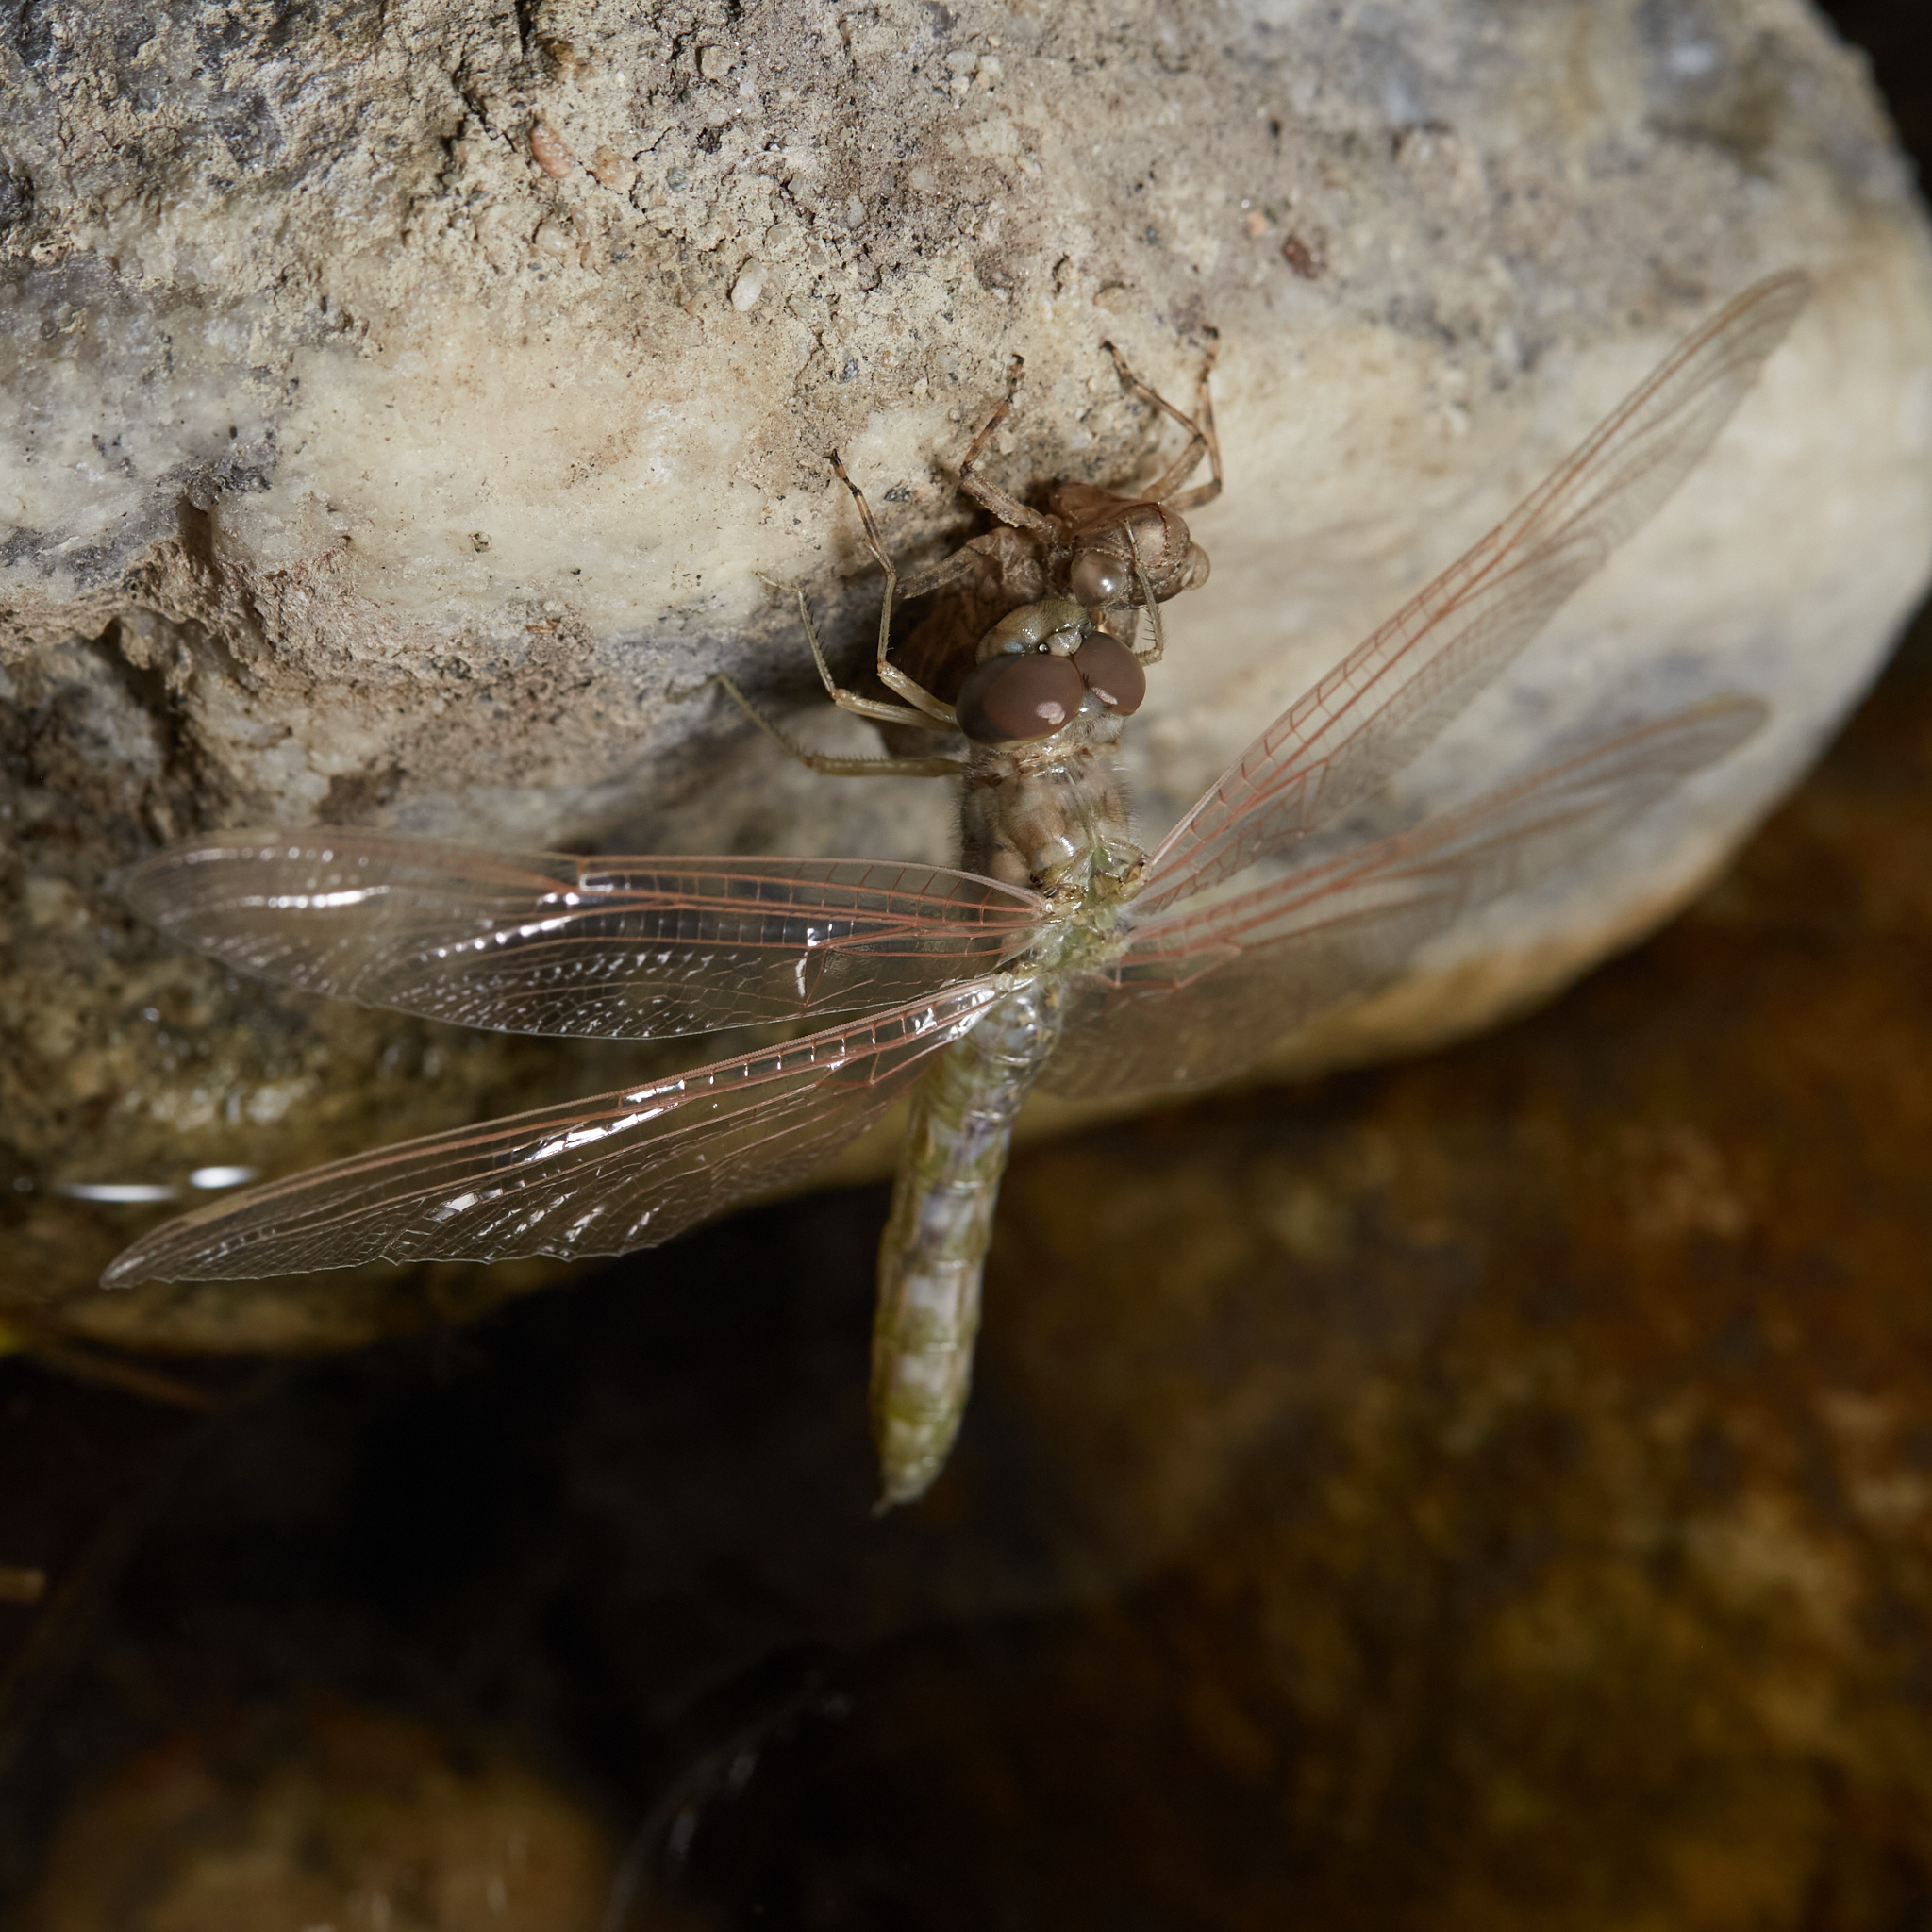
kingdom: Animalia
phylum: Arthropoda
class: Insecta
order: Odonata
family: Libellulidae
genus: Paltothemis
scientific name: Paltothemis lineatipes
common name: Red rock skimmer
